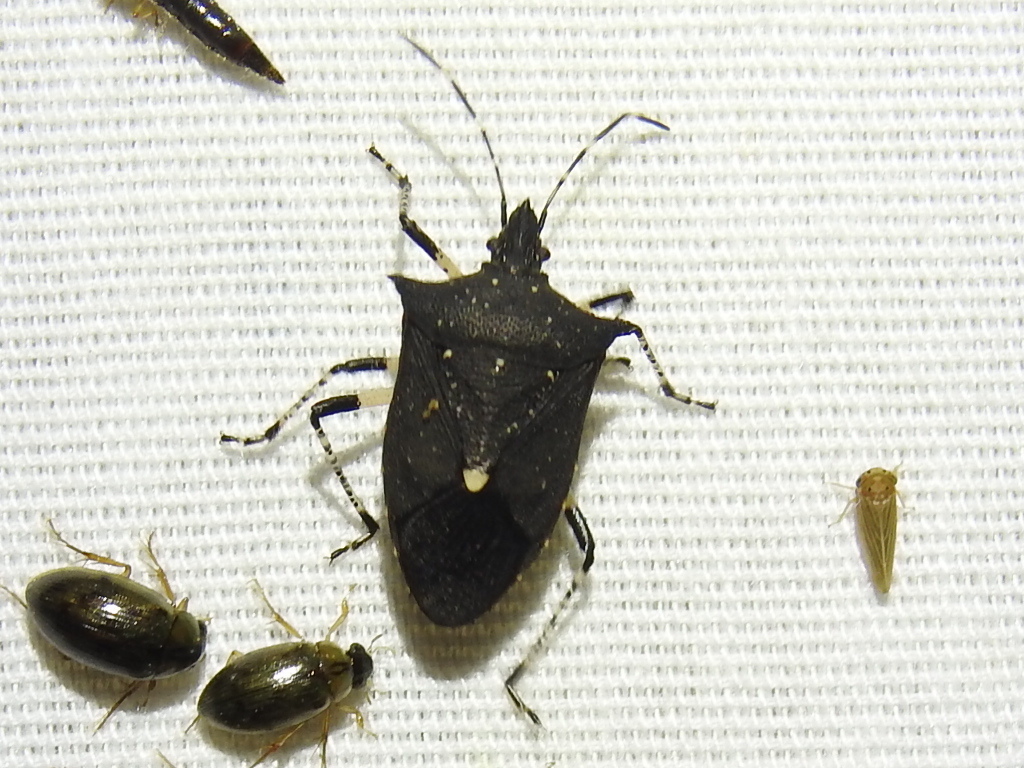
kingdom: Animalia
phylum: Arthropoda
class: Insecta
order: Hemiptera
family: Pentatomidae
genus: Proxys
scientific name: Proxys punctulatus
